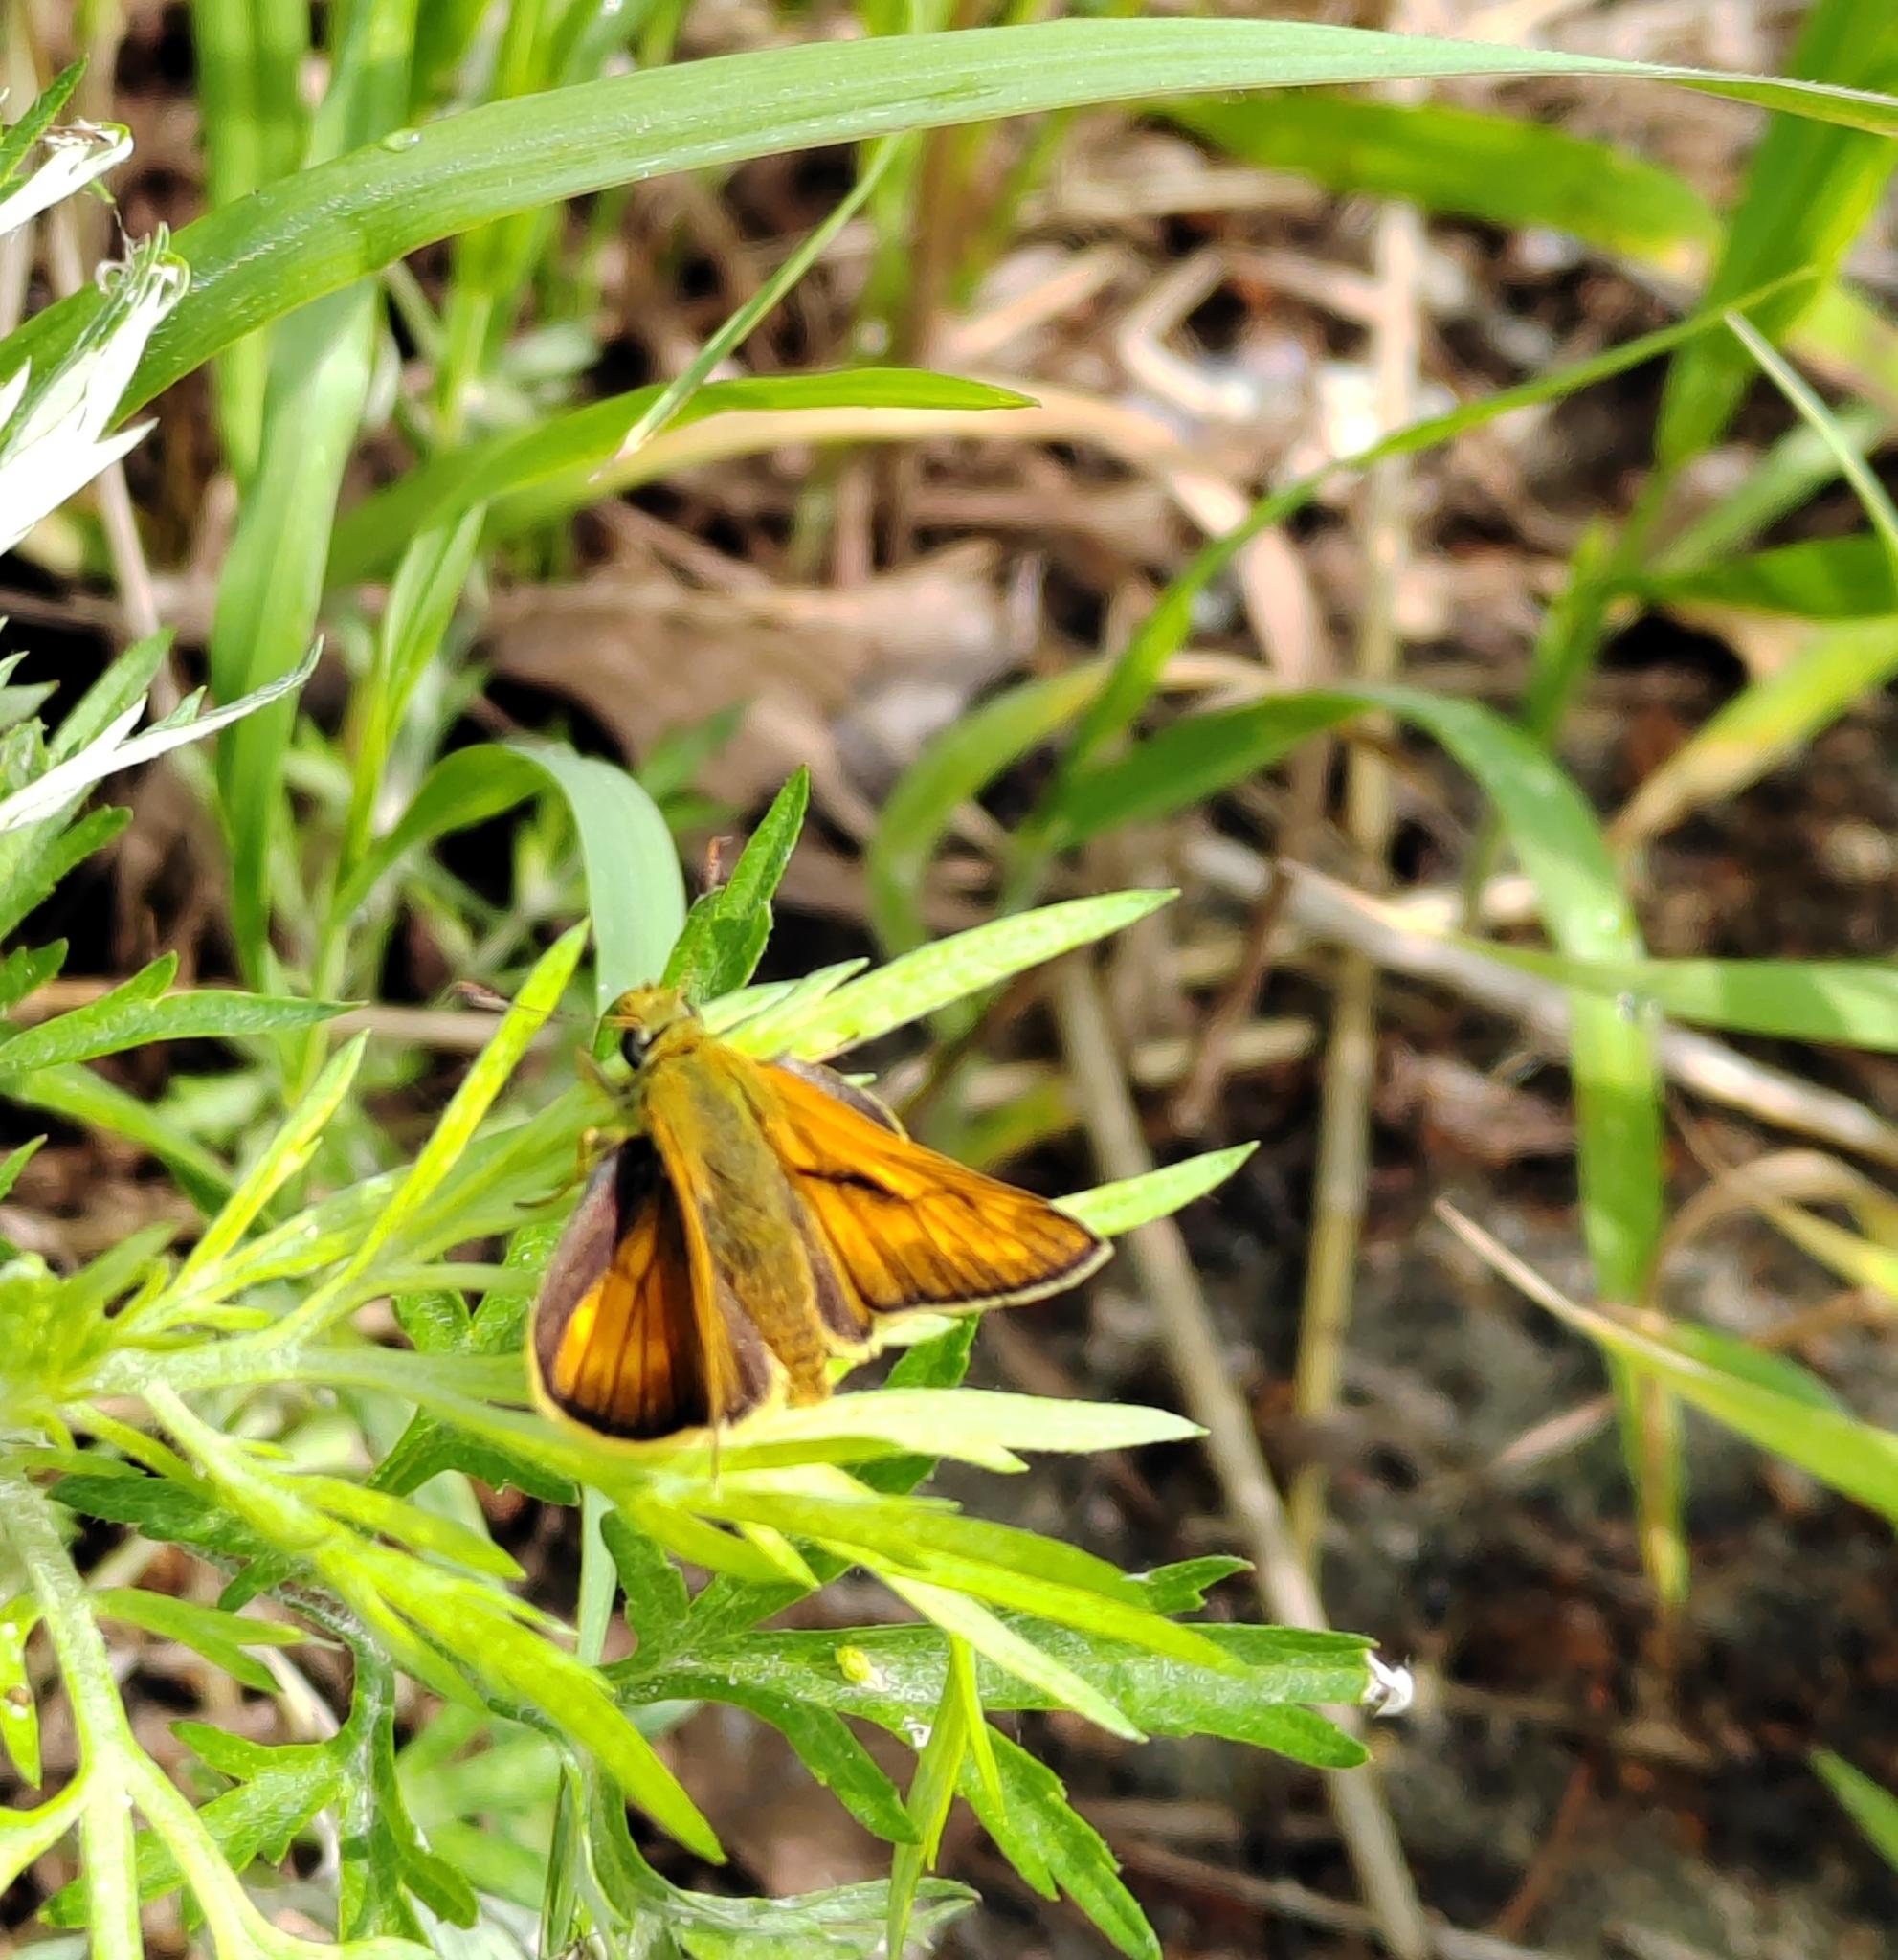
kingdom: Animalia
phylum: Arthropoda
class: Insecta
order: Lepidoptera
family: Hesperiidae
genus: Ochlodes
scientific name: Ochlodes venata
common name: Large skipper
